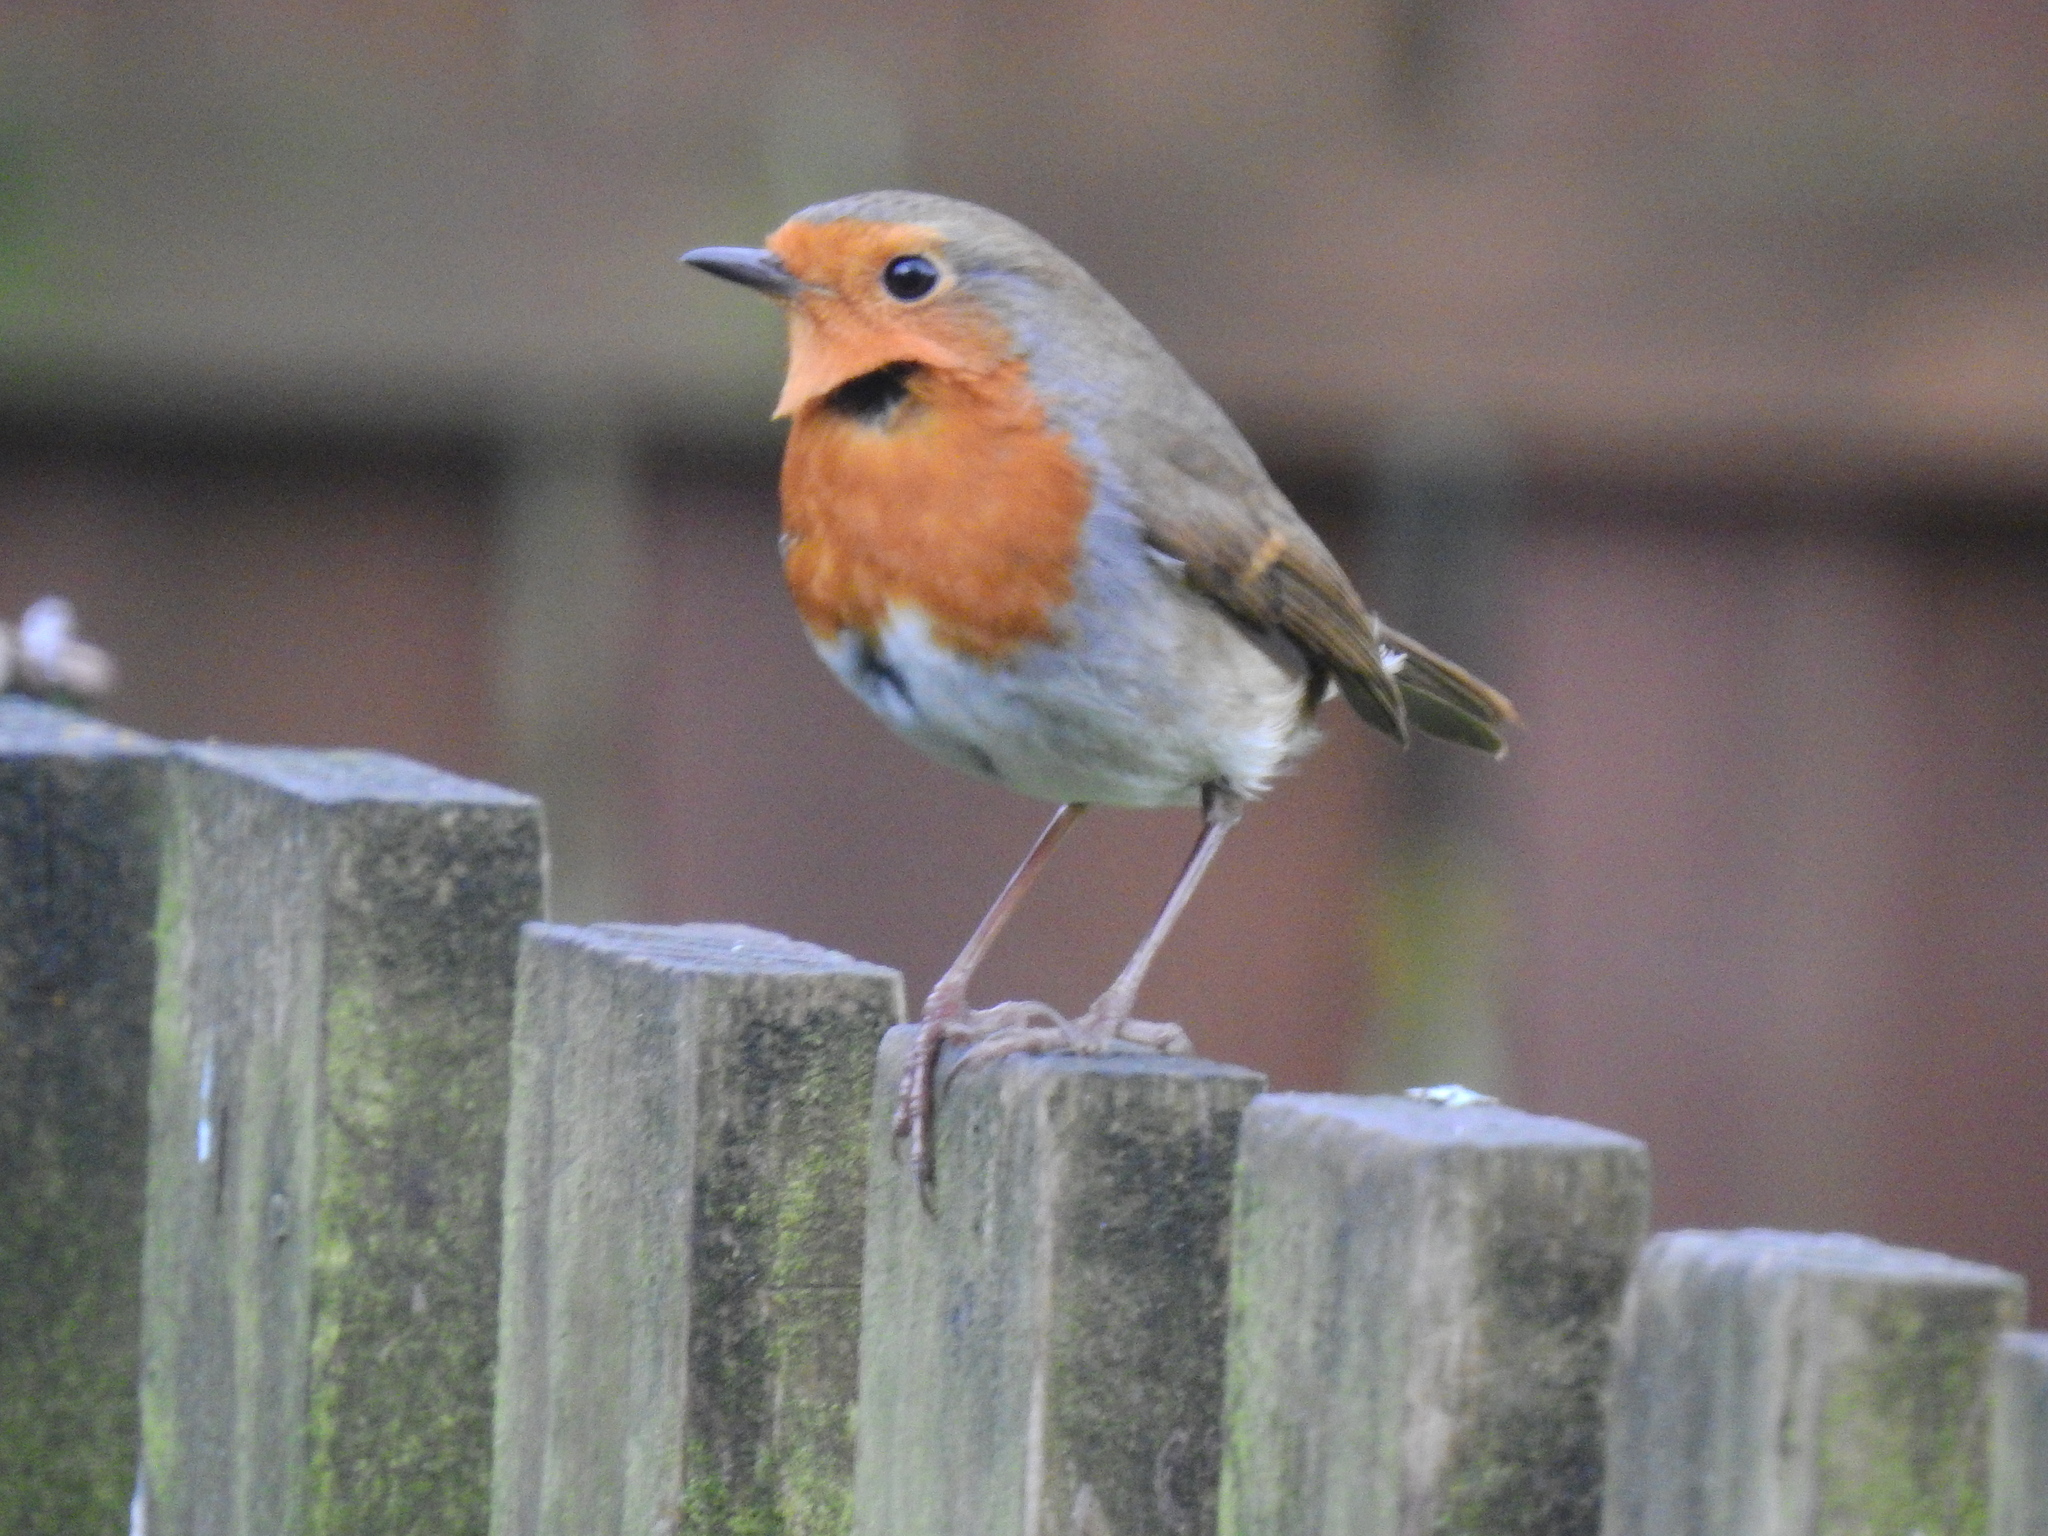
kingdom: Animalia
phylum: Chordata
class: Aves
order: Passeriformes
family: Muscicapidae
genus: Erithacus
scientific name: Erithacus rubecula
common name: European robin
